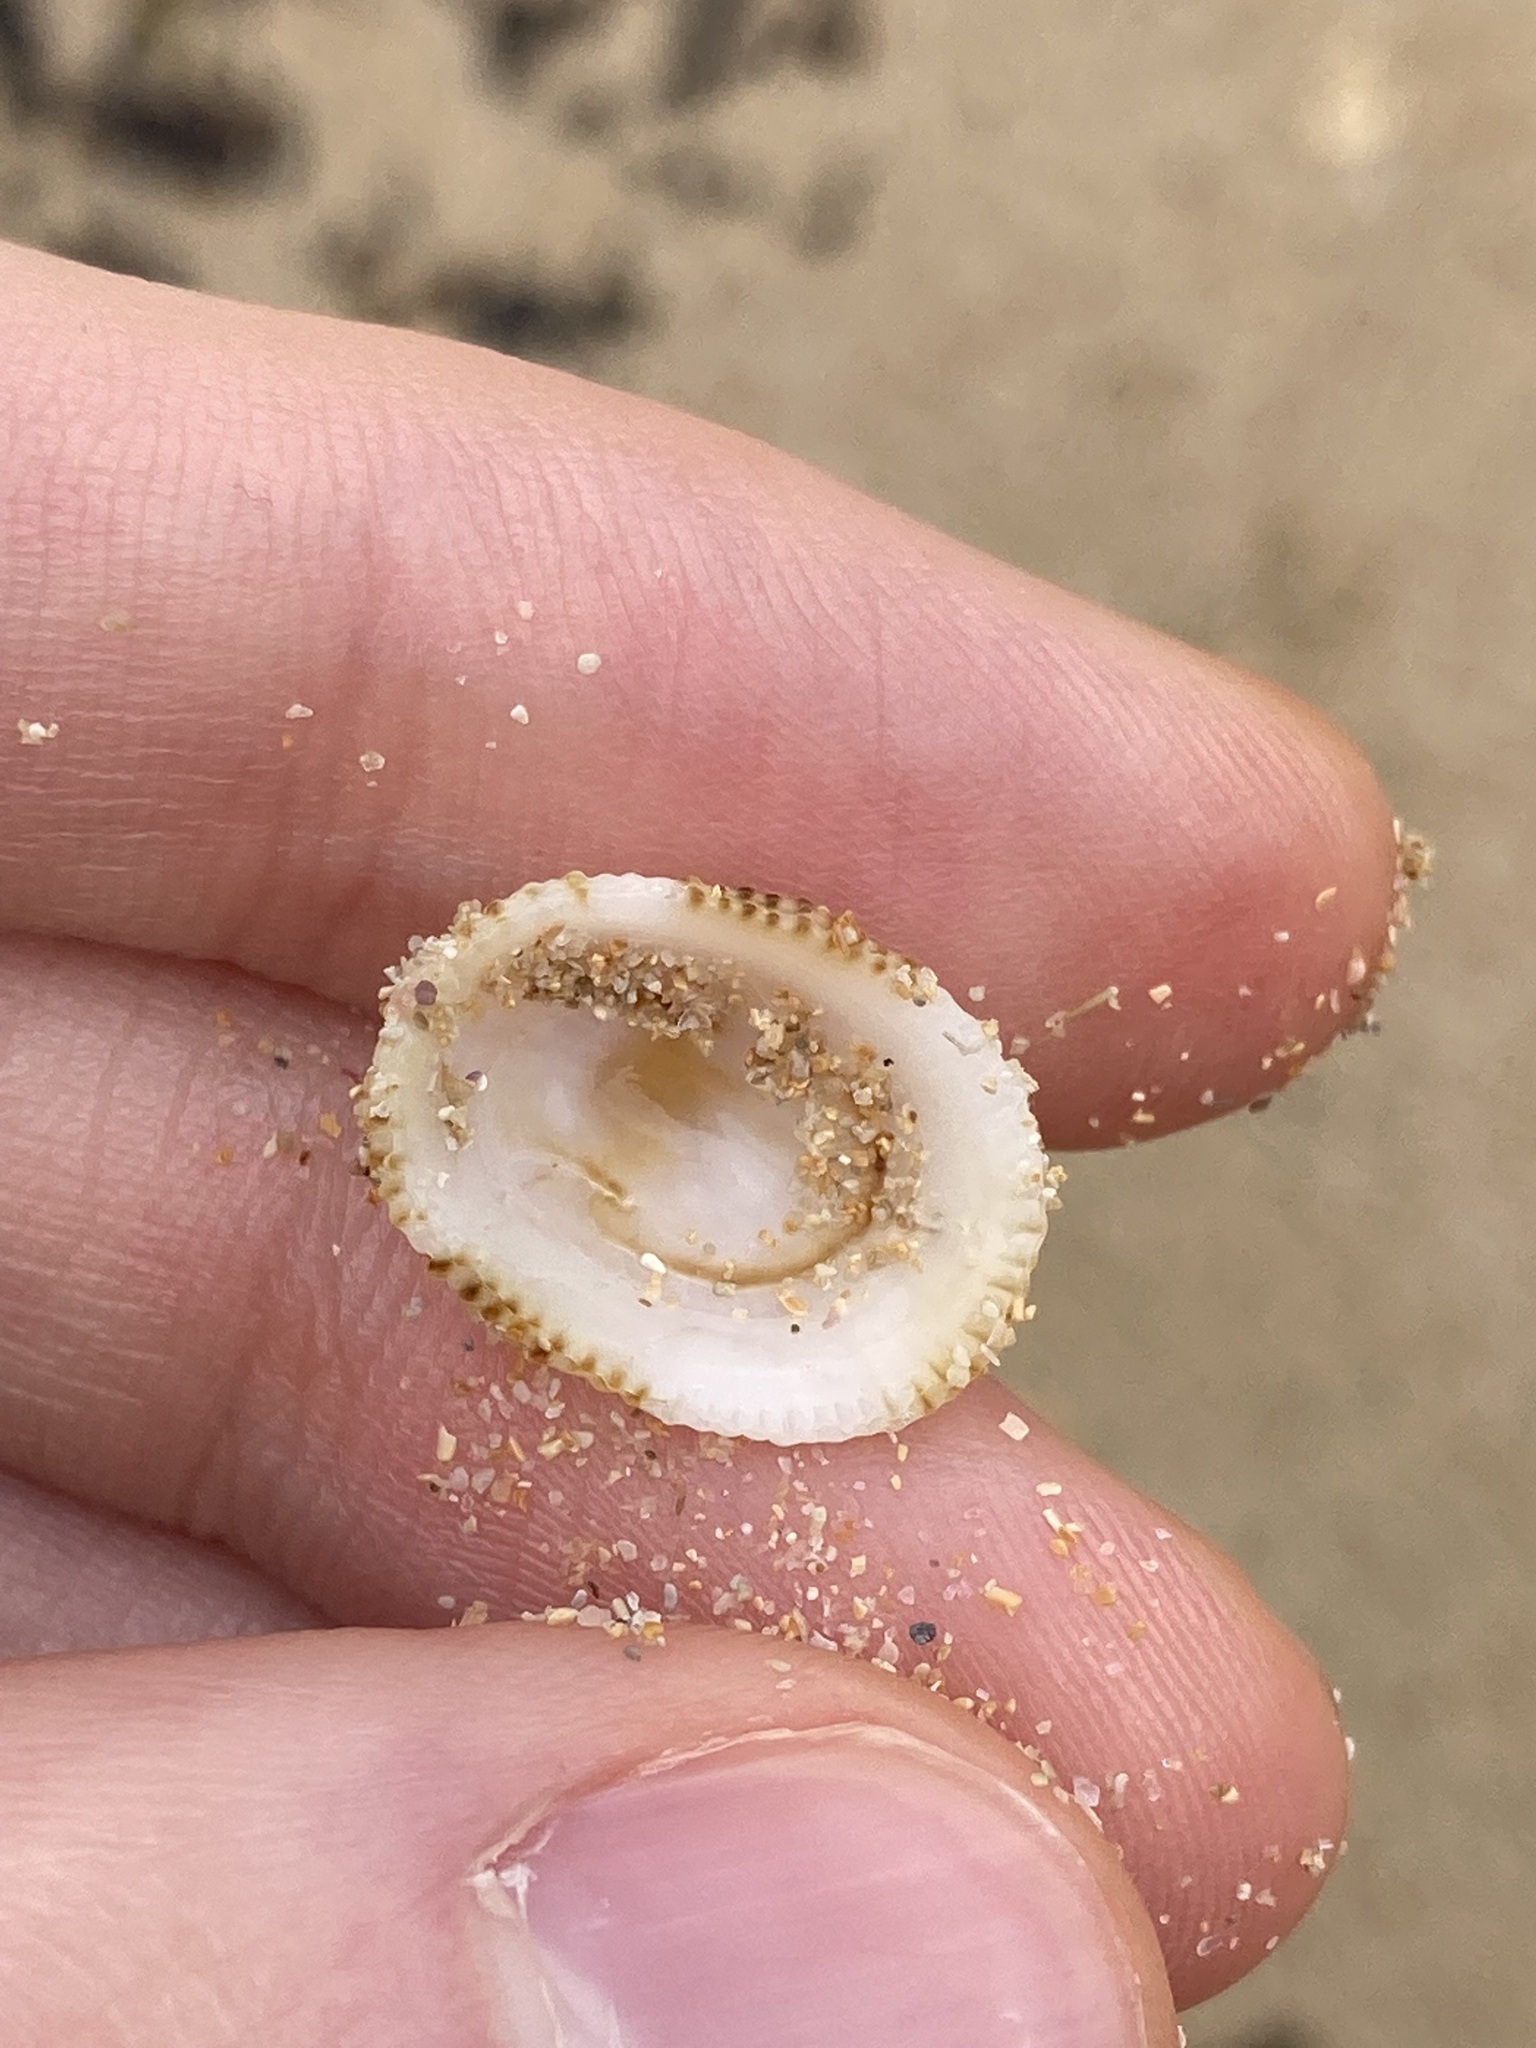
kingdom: Animalia
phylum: Mollusca
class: Gastropoda
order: Lepetellida
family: Fissurellidae
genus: Montfortula
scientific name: Montfortula rugosa
